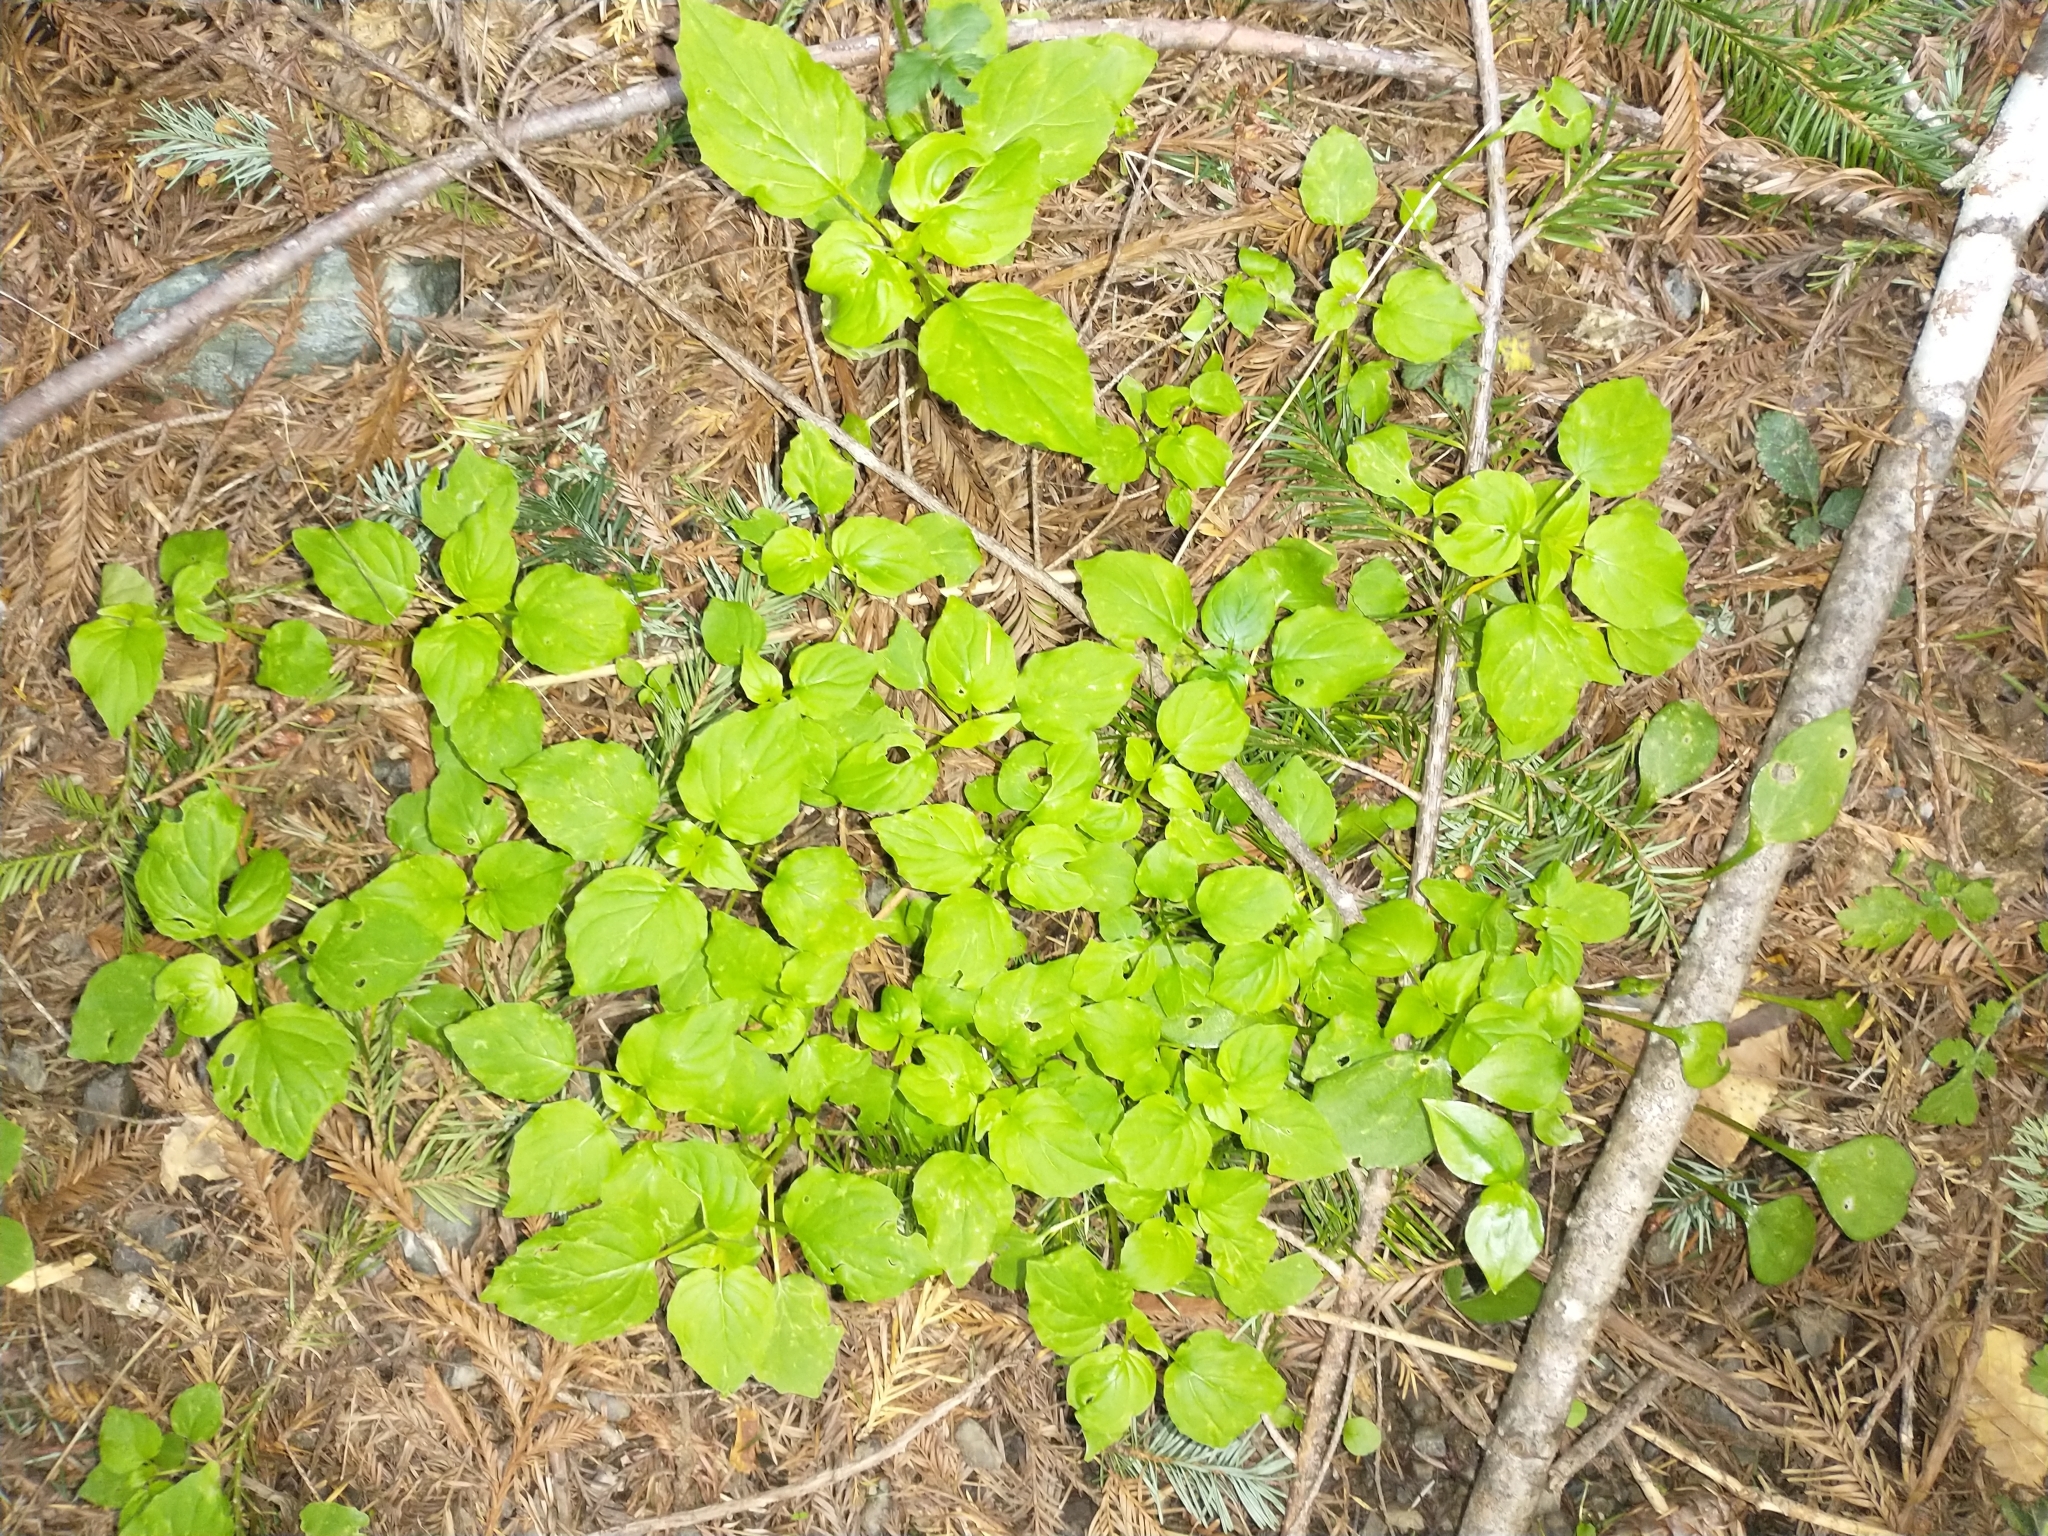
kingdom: Plantae
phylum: Tracheophyta
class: Magnoliopsida
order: Myrtales
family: Onagraceae
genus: Circaea
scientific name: Circaea alpina
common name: Alpine enchanter's-nightshade
